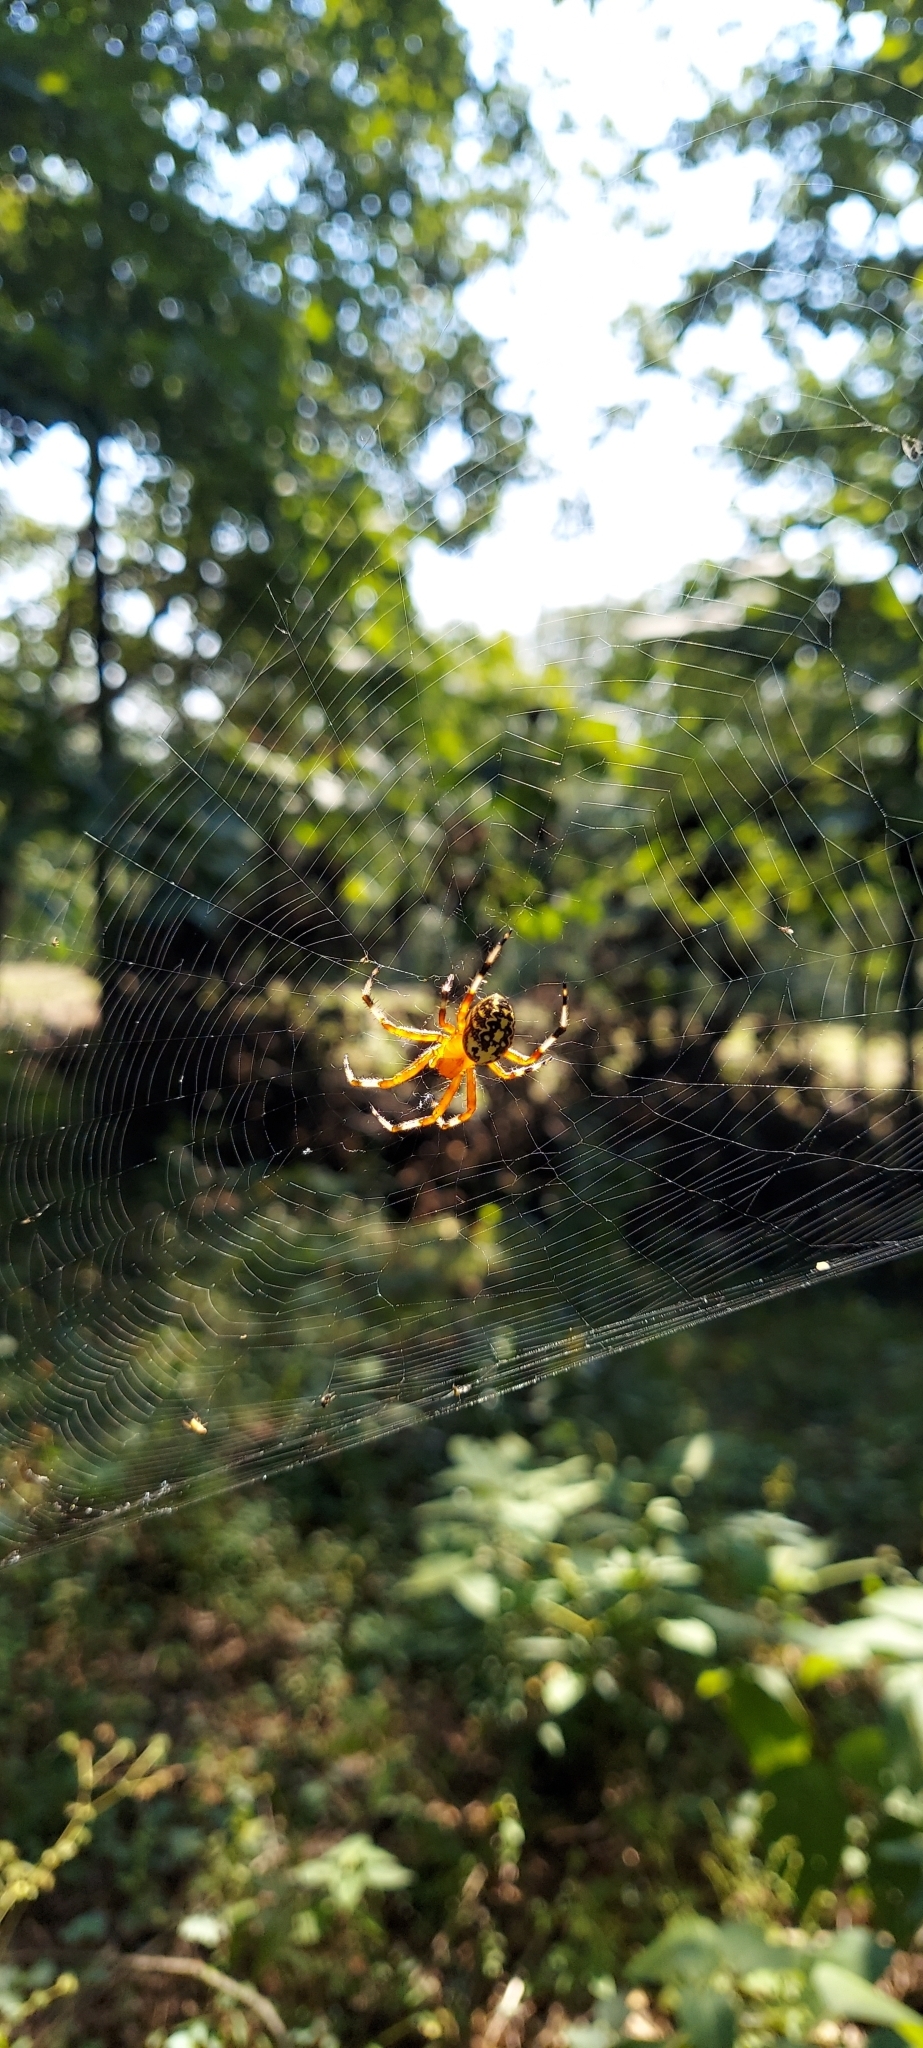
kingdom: Animalia
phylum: Arthropoda
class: Arachnida
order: Araneae
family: Araneidae
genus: Araneus
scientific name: Araneus marmoreus
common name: Marbled orbweaver
